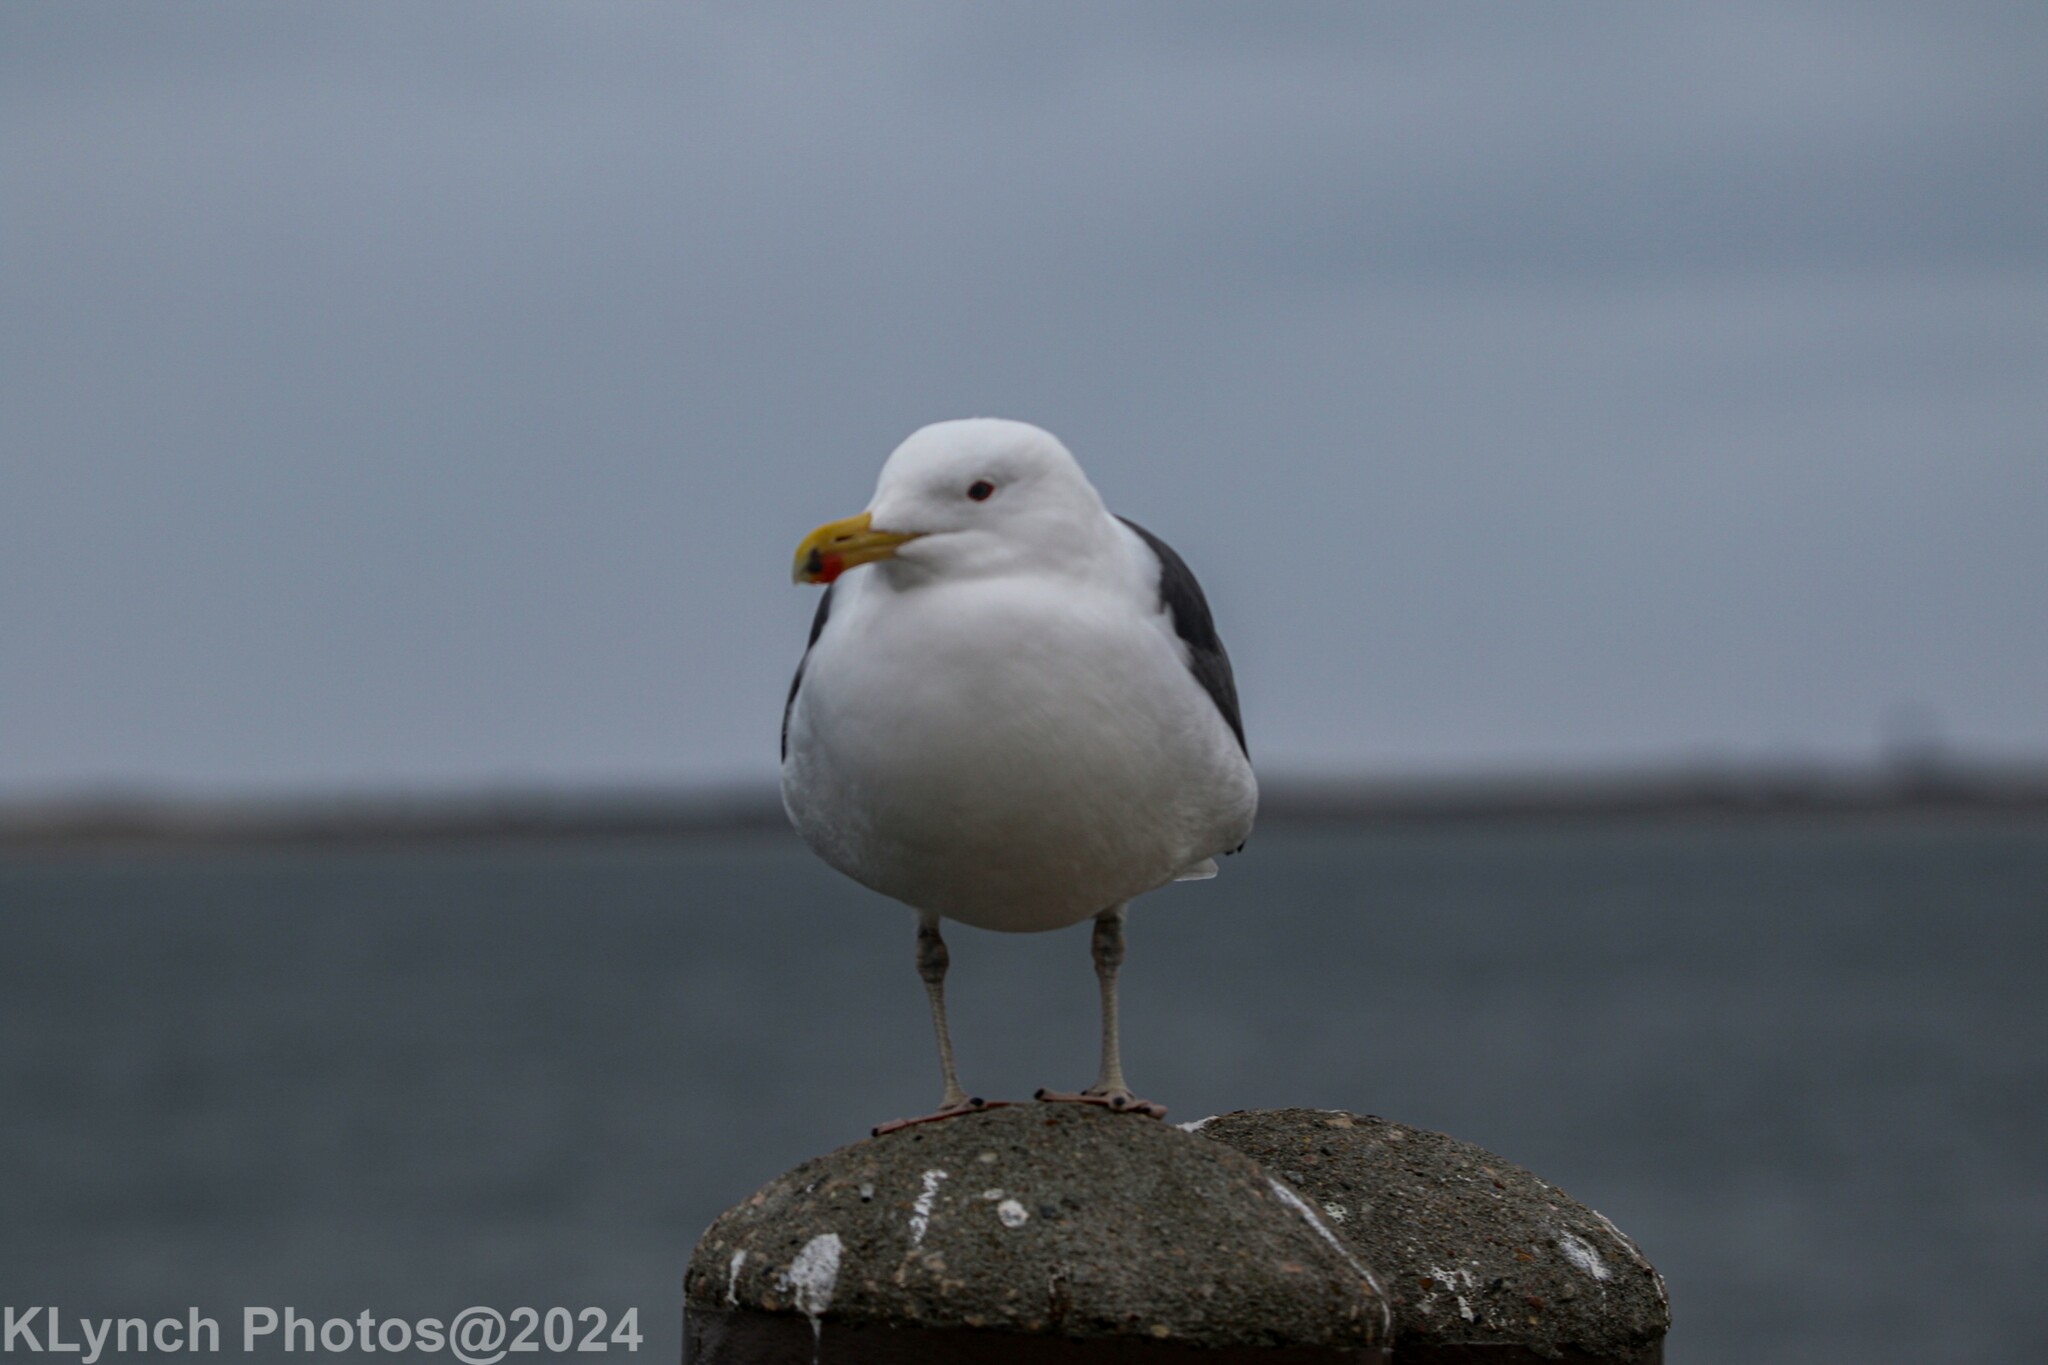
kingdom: Animalia
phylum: Chordata
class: Aves
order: Charadriiformes
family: Laridae
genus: Larus
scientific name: Larus marinus
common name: Great black-backed gull
